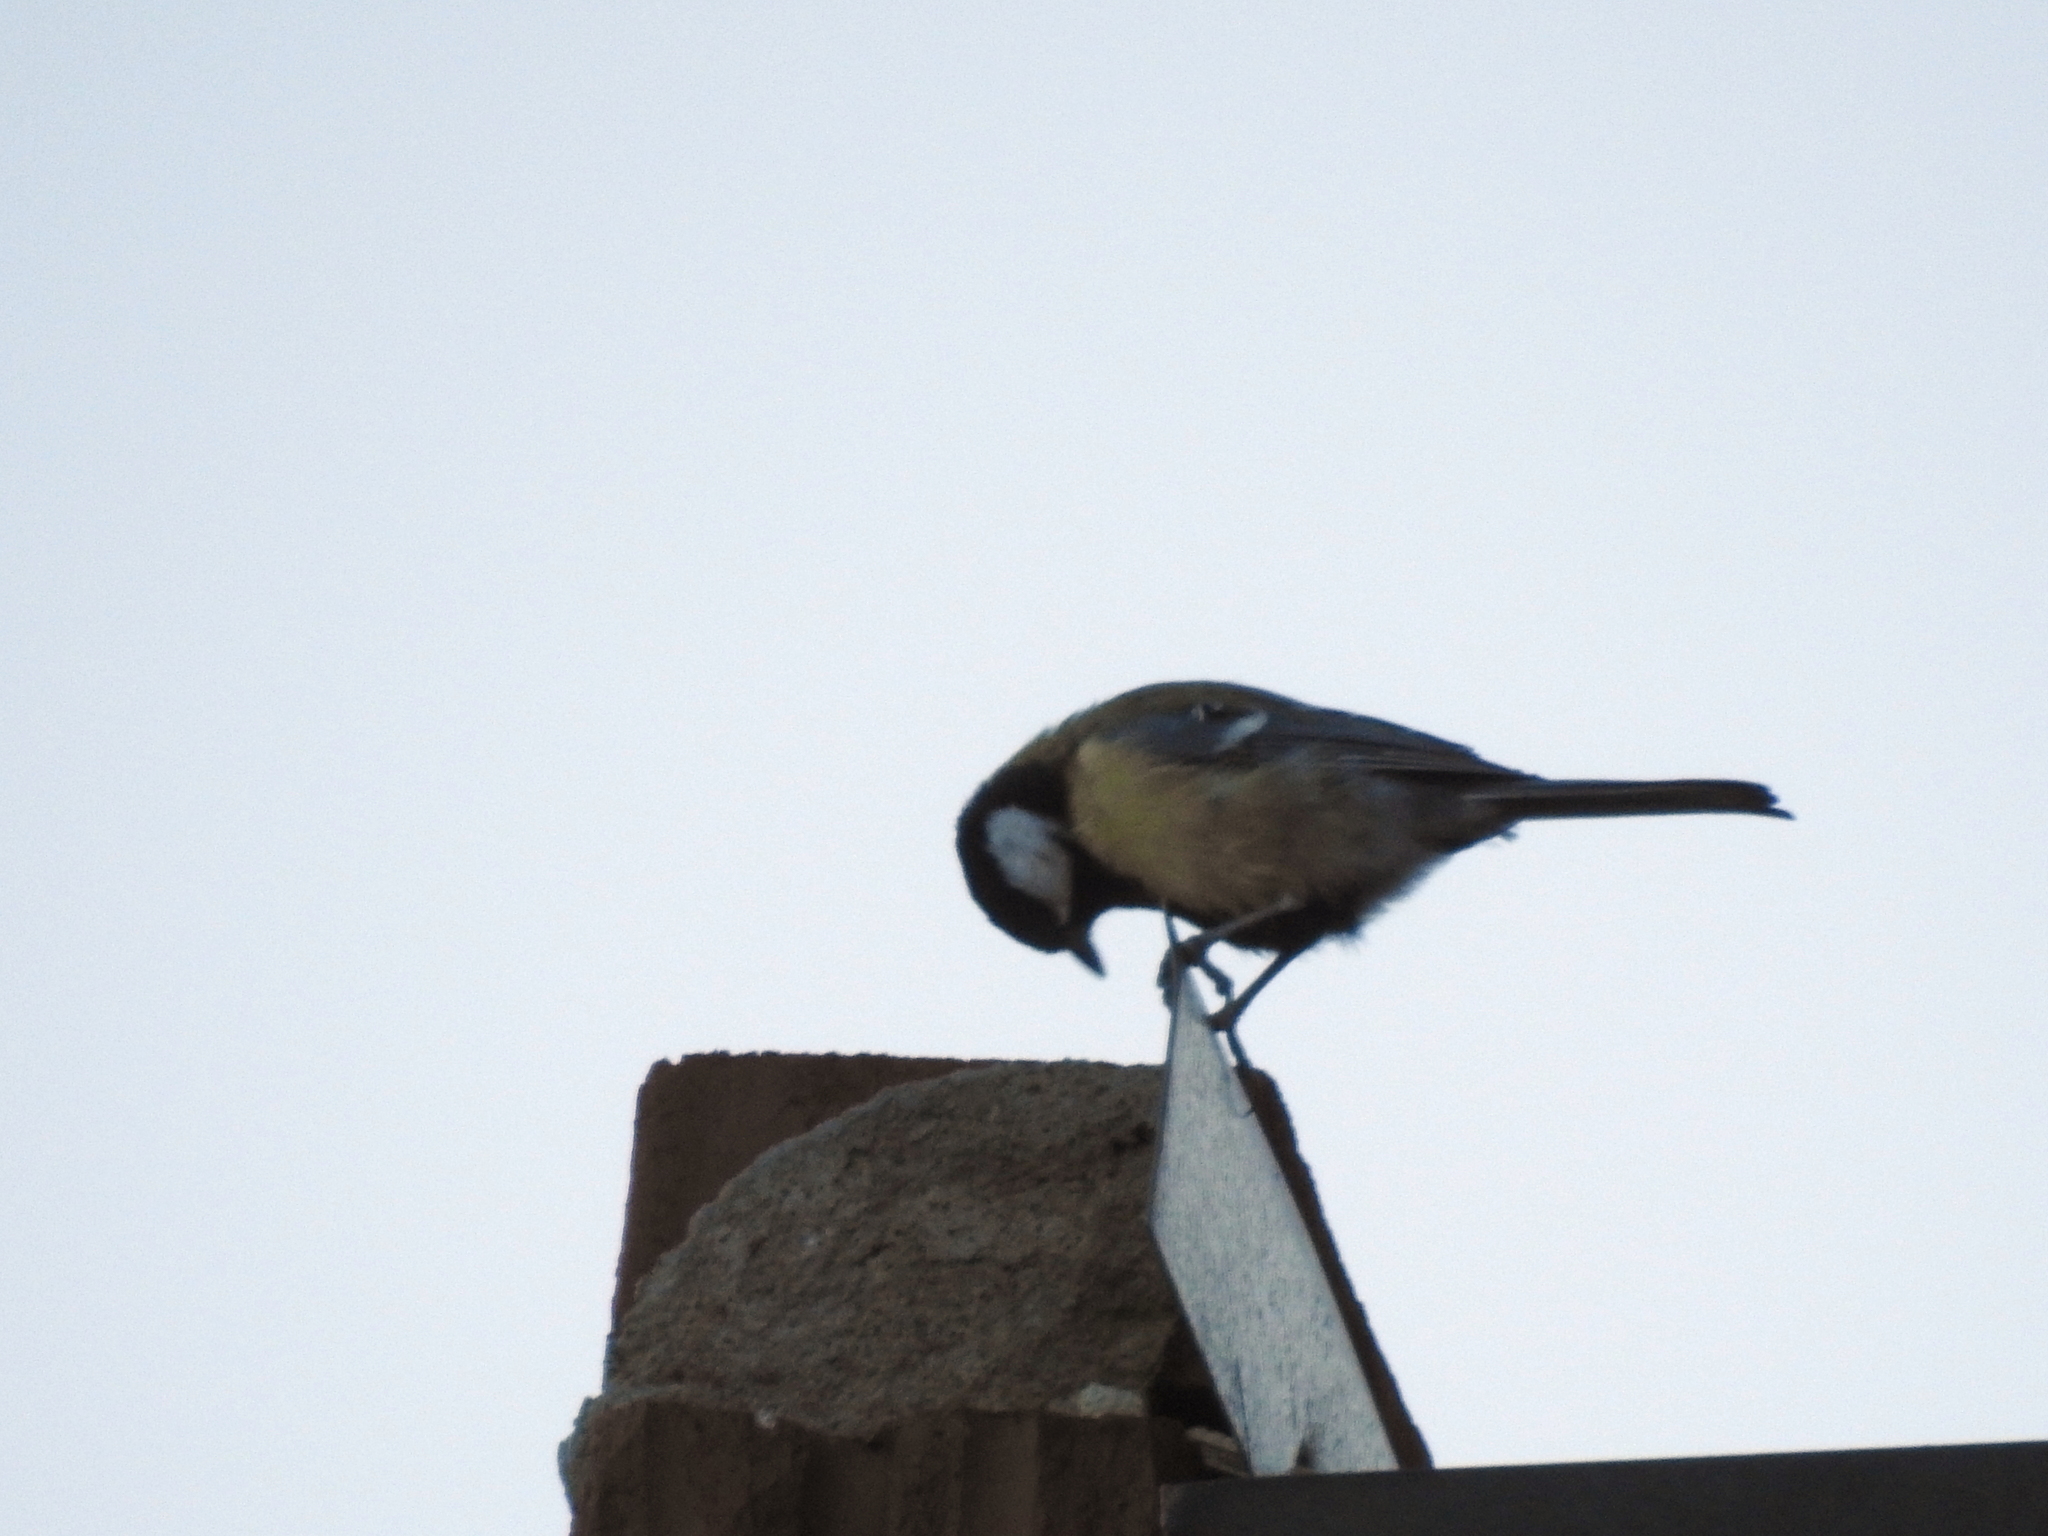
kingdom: Animalia
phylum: Chordata
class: Aves
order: Passeriformes
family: Paridae
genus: Parus
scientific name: Parus major
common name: Great tit
